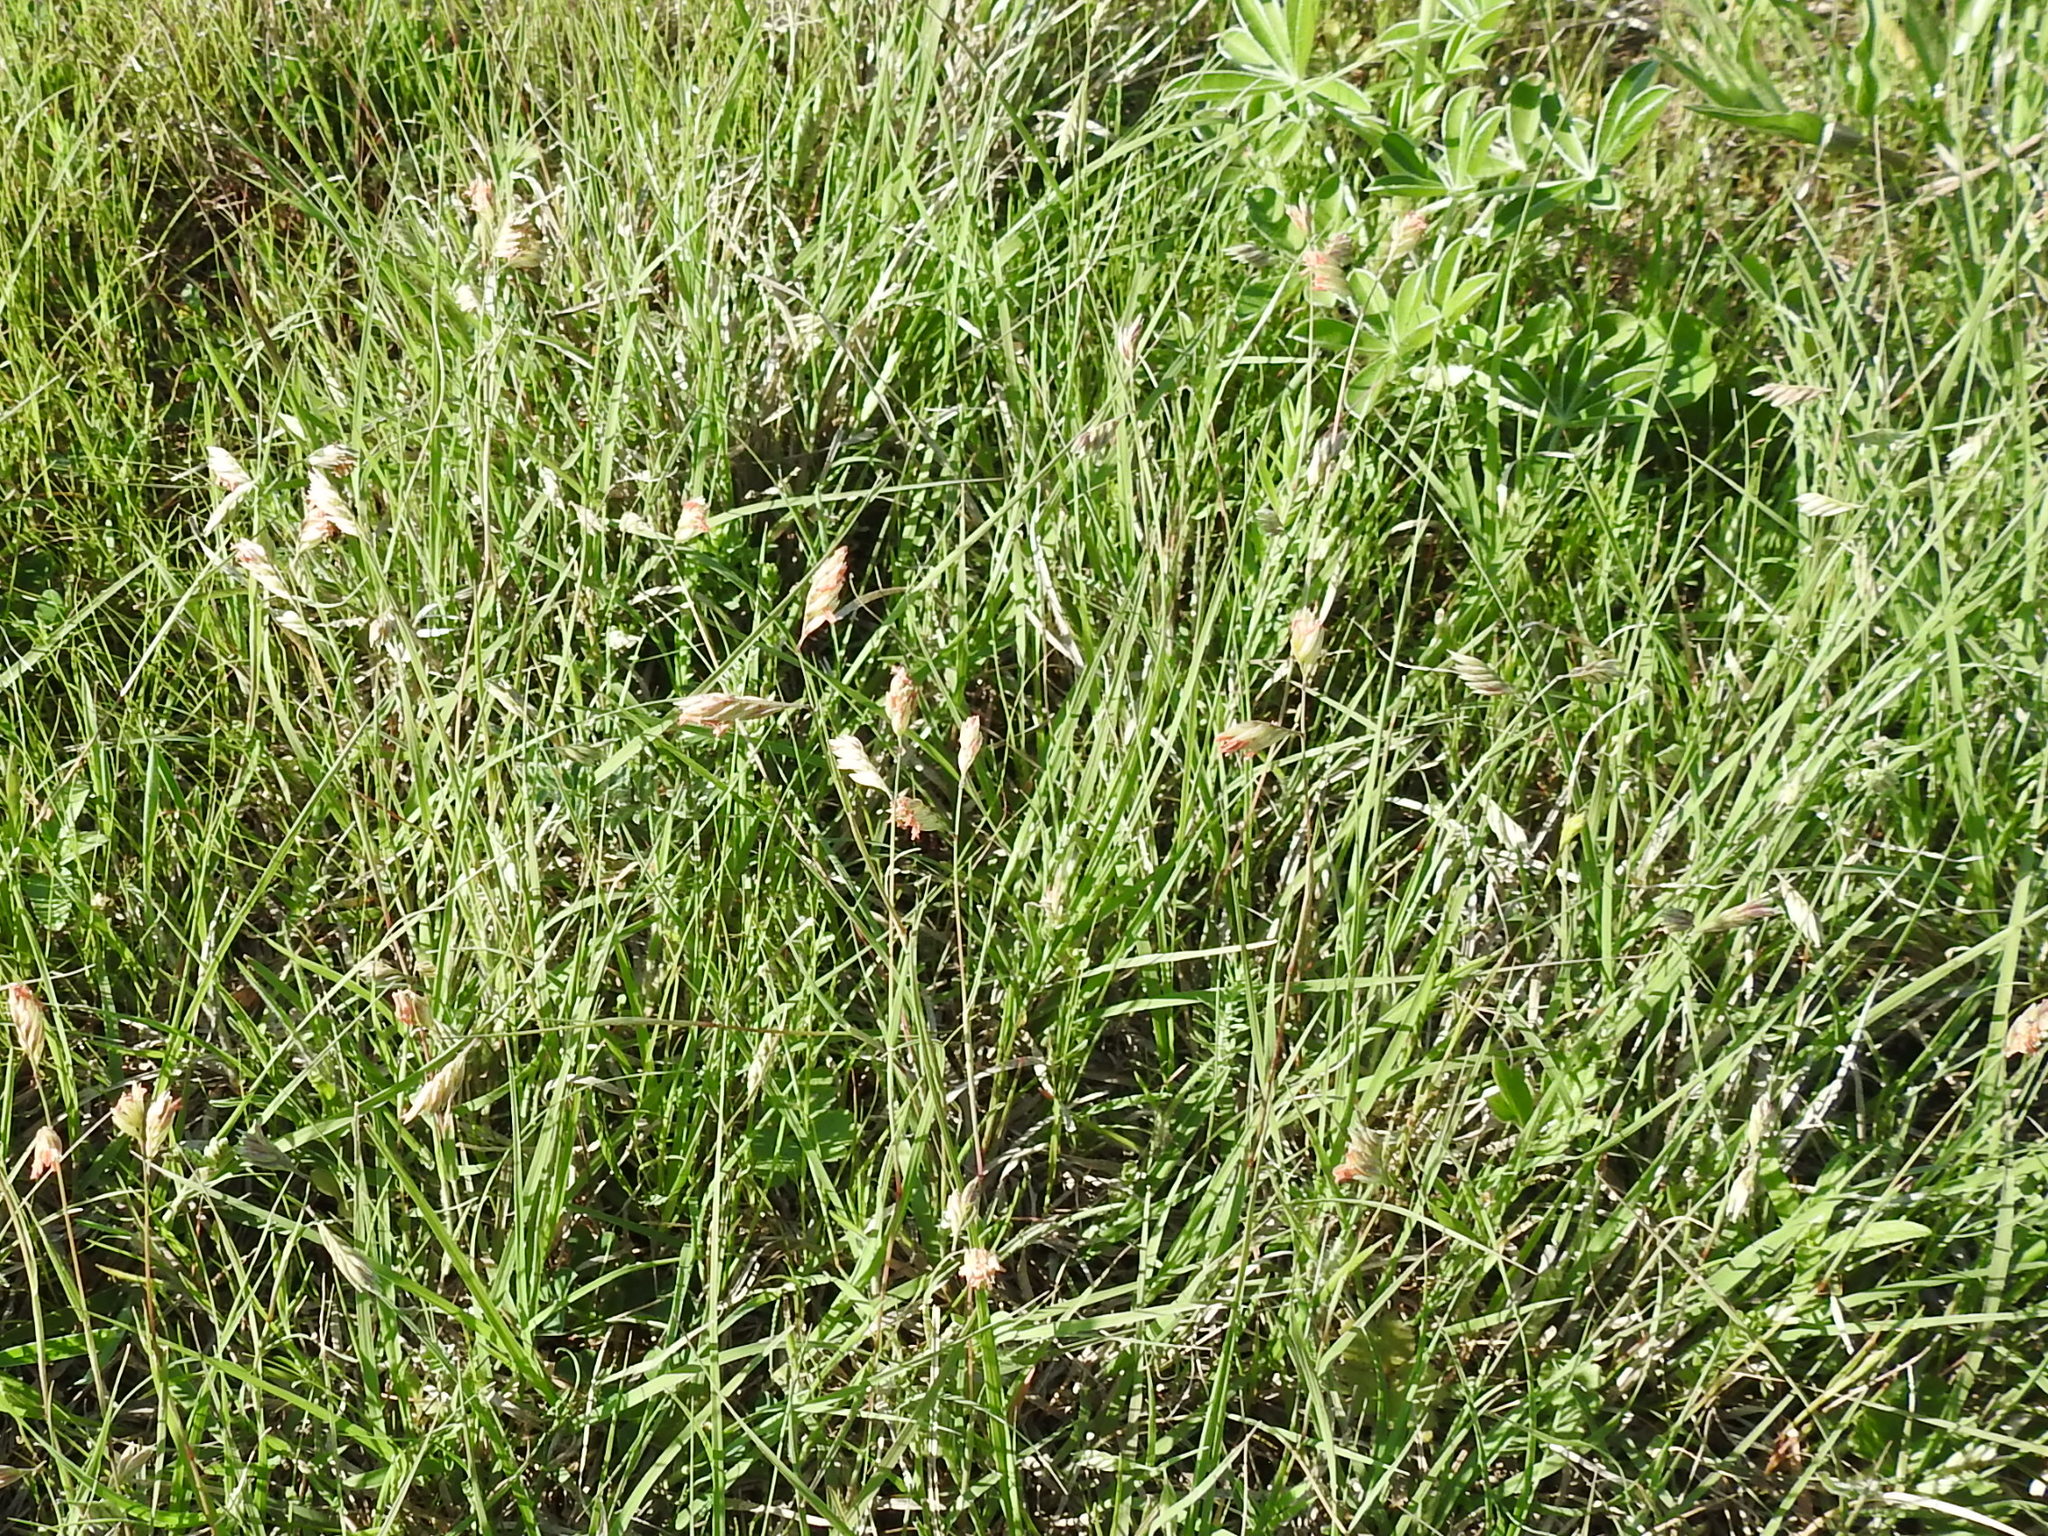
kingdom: Plantae
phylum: Tracheophyta
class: Liliopsida
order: Poales
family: Poaceae
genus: Bouteloua
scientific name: Bouteloua dactyloides
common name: Buffalo grass
